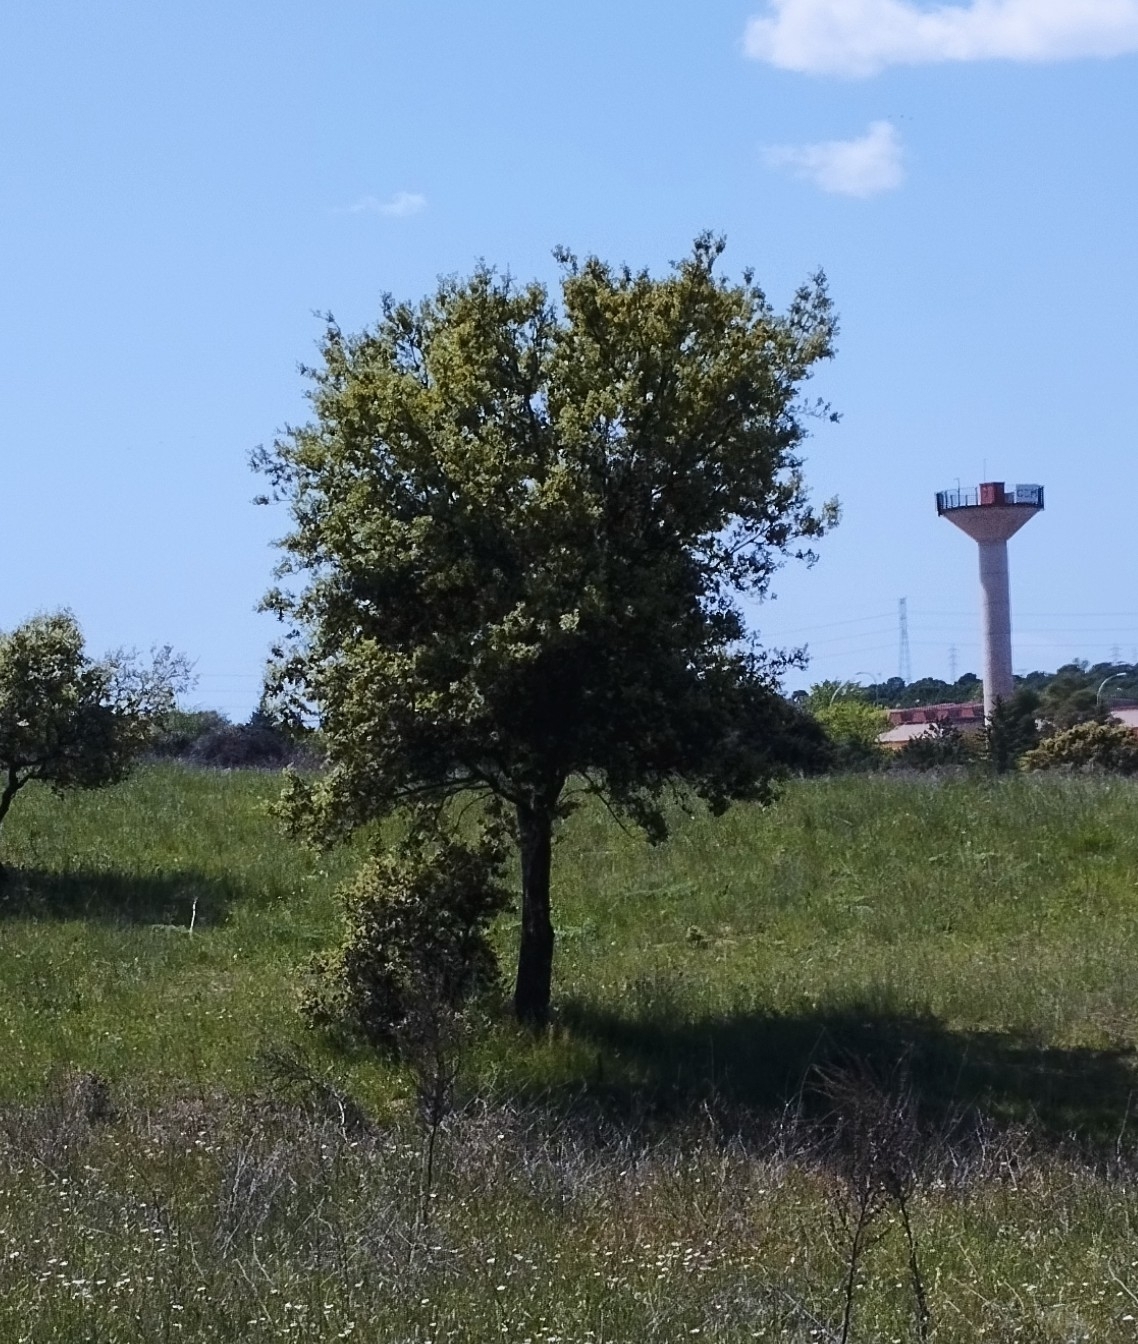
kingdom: Plantae
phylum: Tracheophyta
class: Magnoliopsida
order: Fagales
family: Fagaceae
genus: Quercus
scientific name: Quercus rotundifolia
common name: Holm oak
